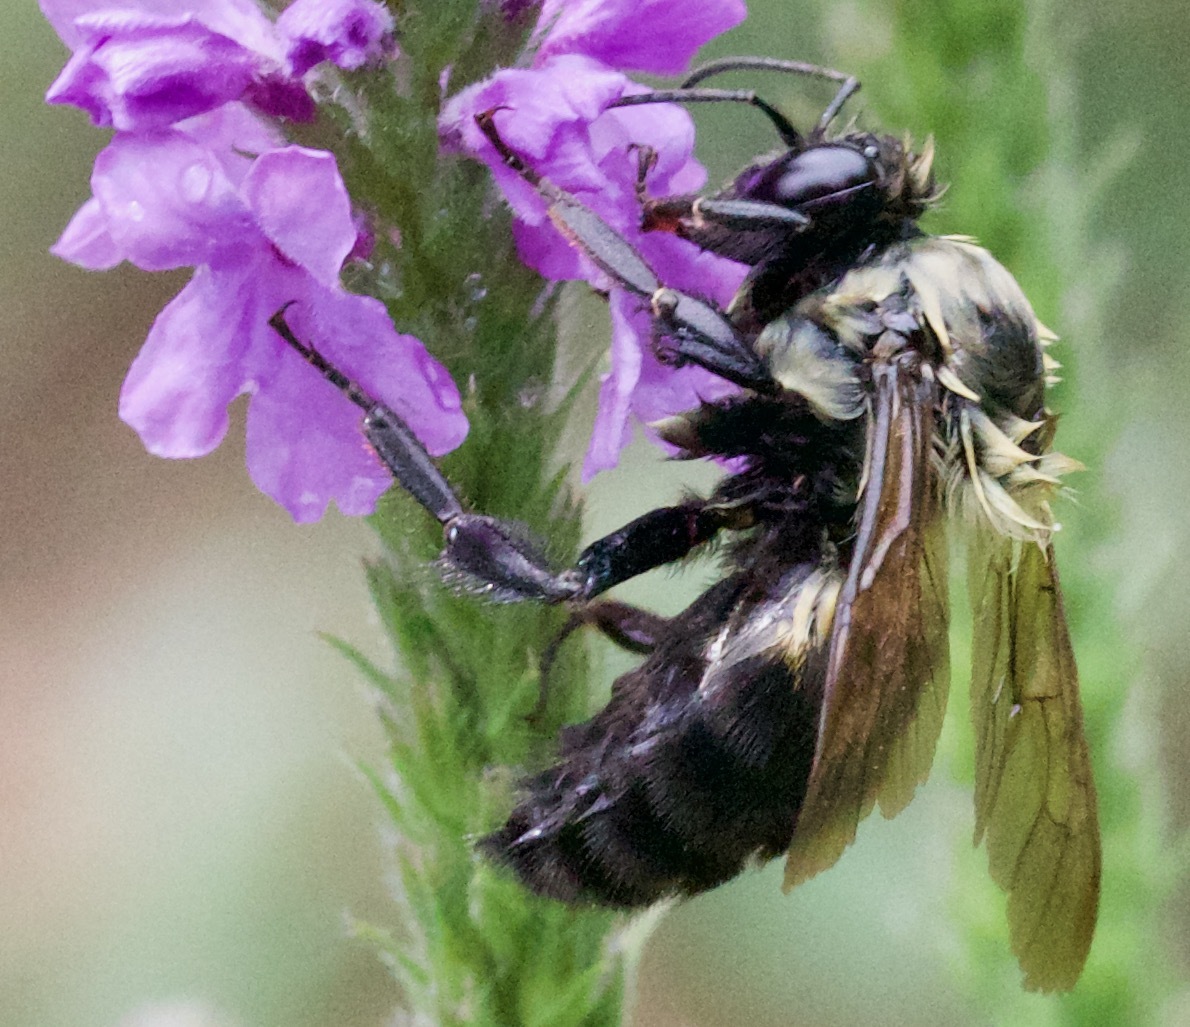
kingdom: Animalia
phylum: Arthropoda
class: Insecta
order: Hymenoptera
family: Apidae
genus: Xylocopa
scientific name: Xylocopa virginica
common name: Carpenter bee
